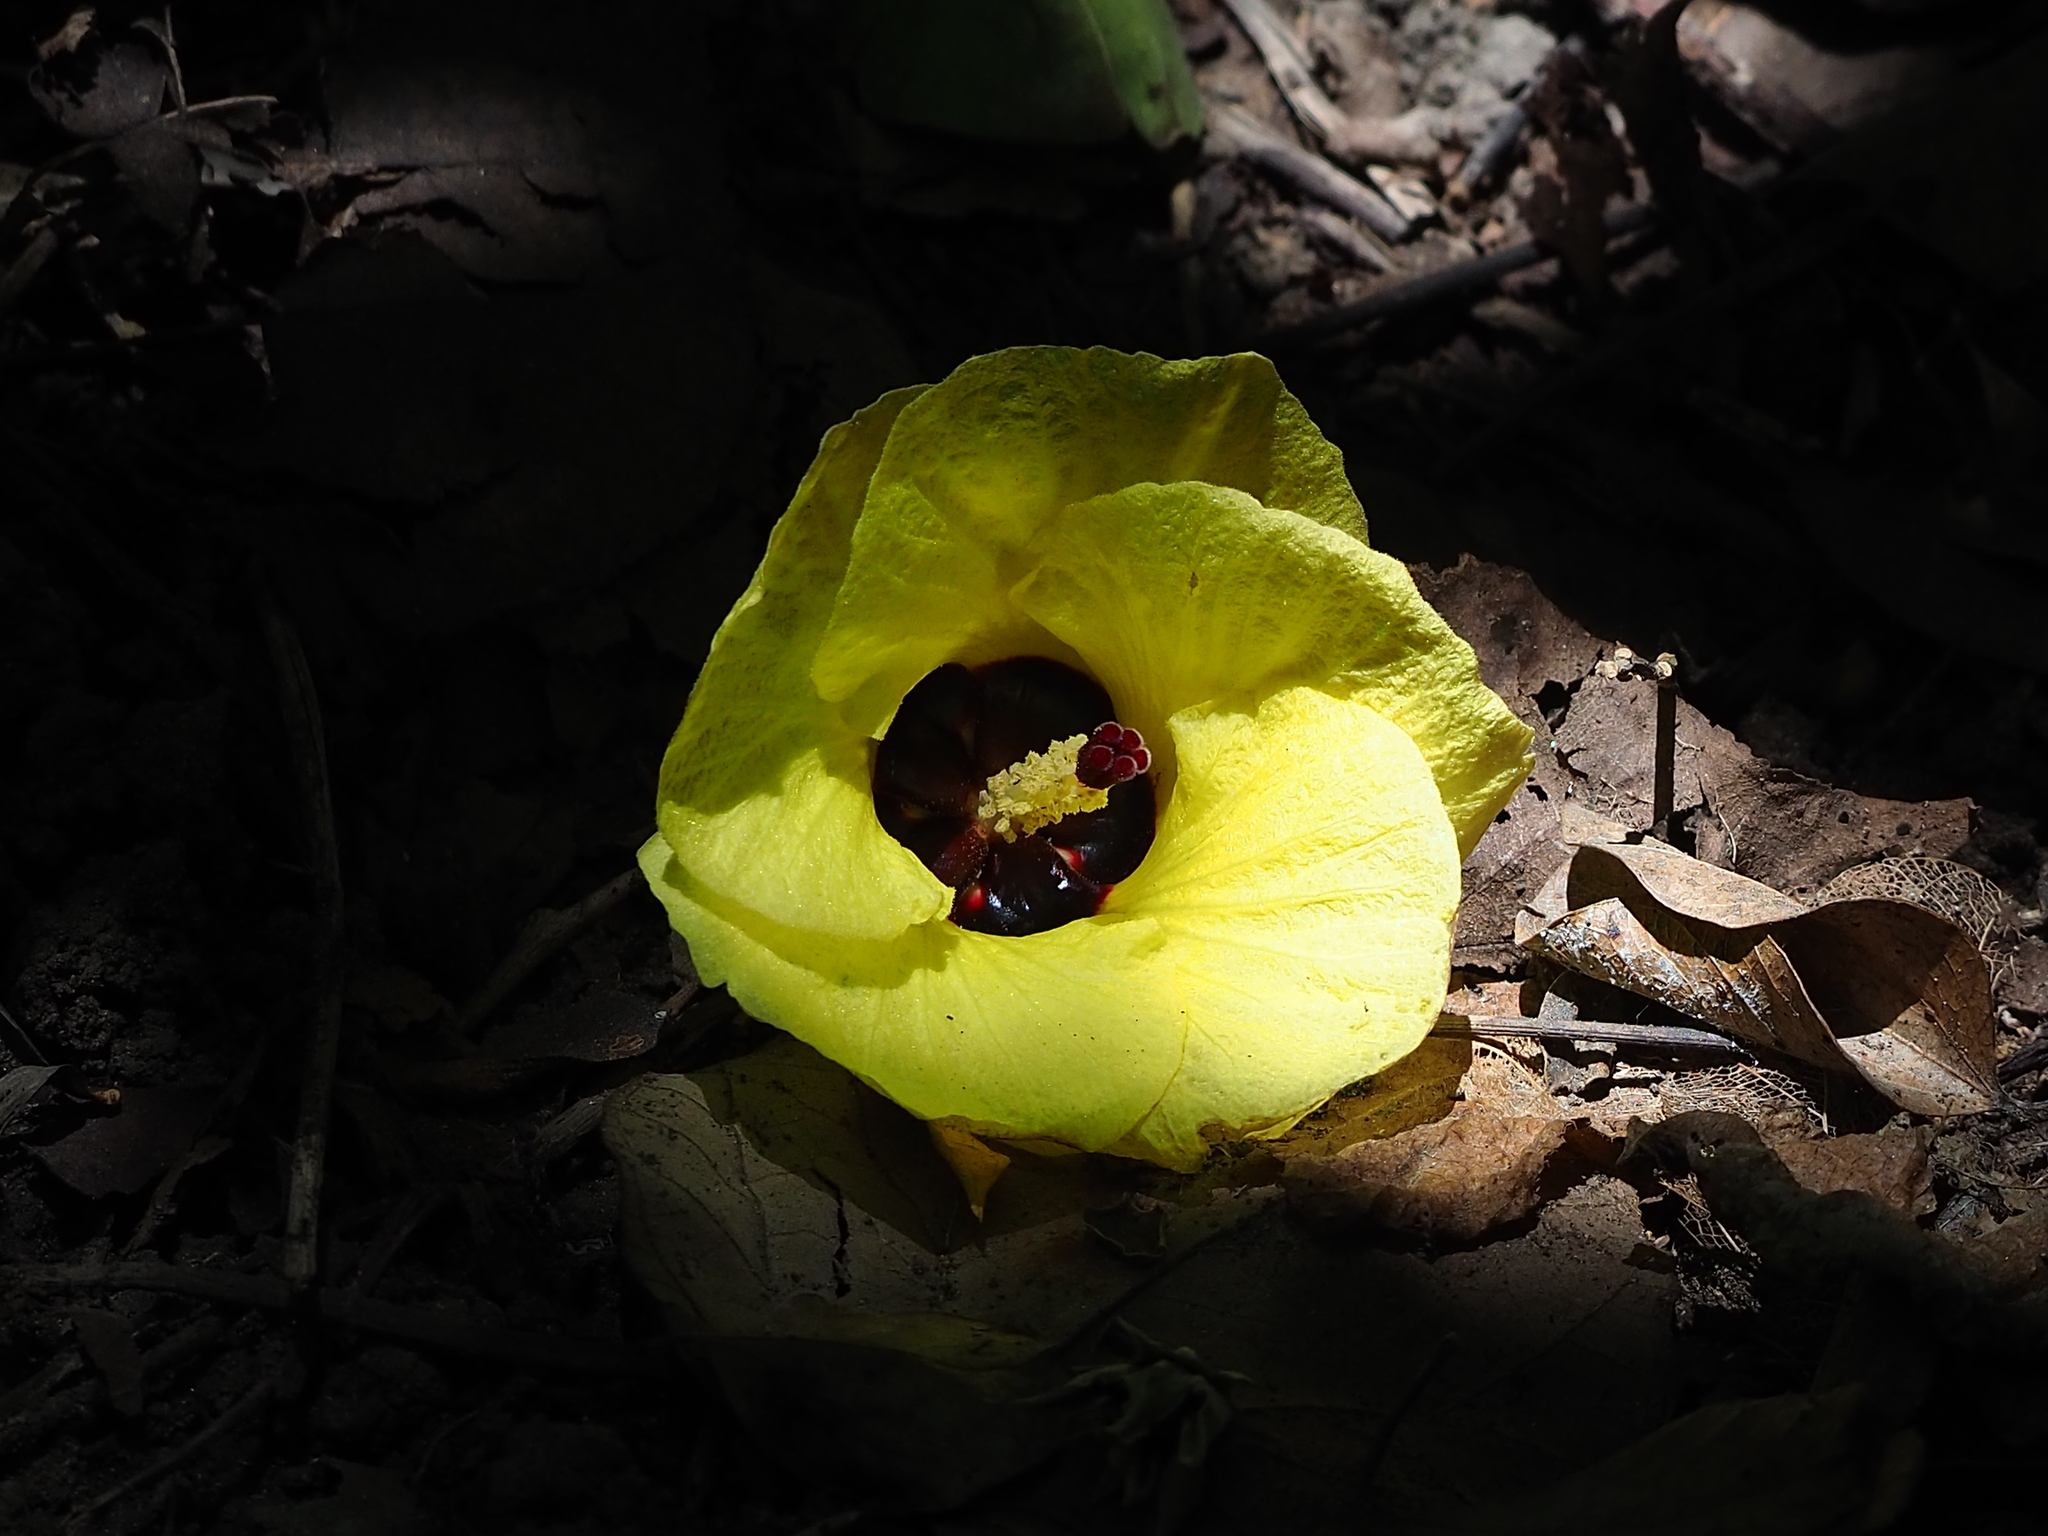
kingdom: Plantae
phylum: Tracheophyta
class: Magnoliopsida
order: Malvales
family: Malvaceae
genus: Talipariti
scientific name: Talipariti tiliaceum
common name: Sea hibiscus
